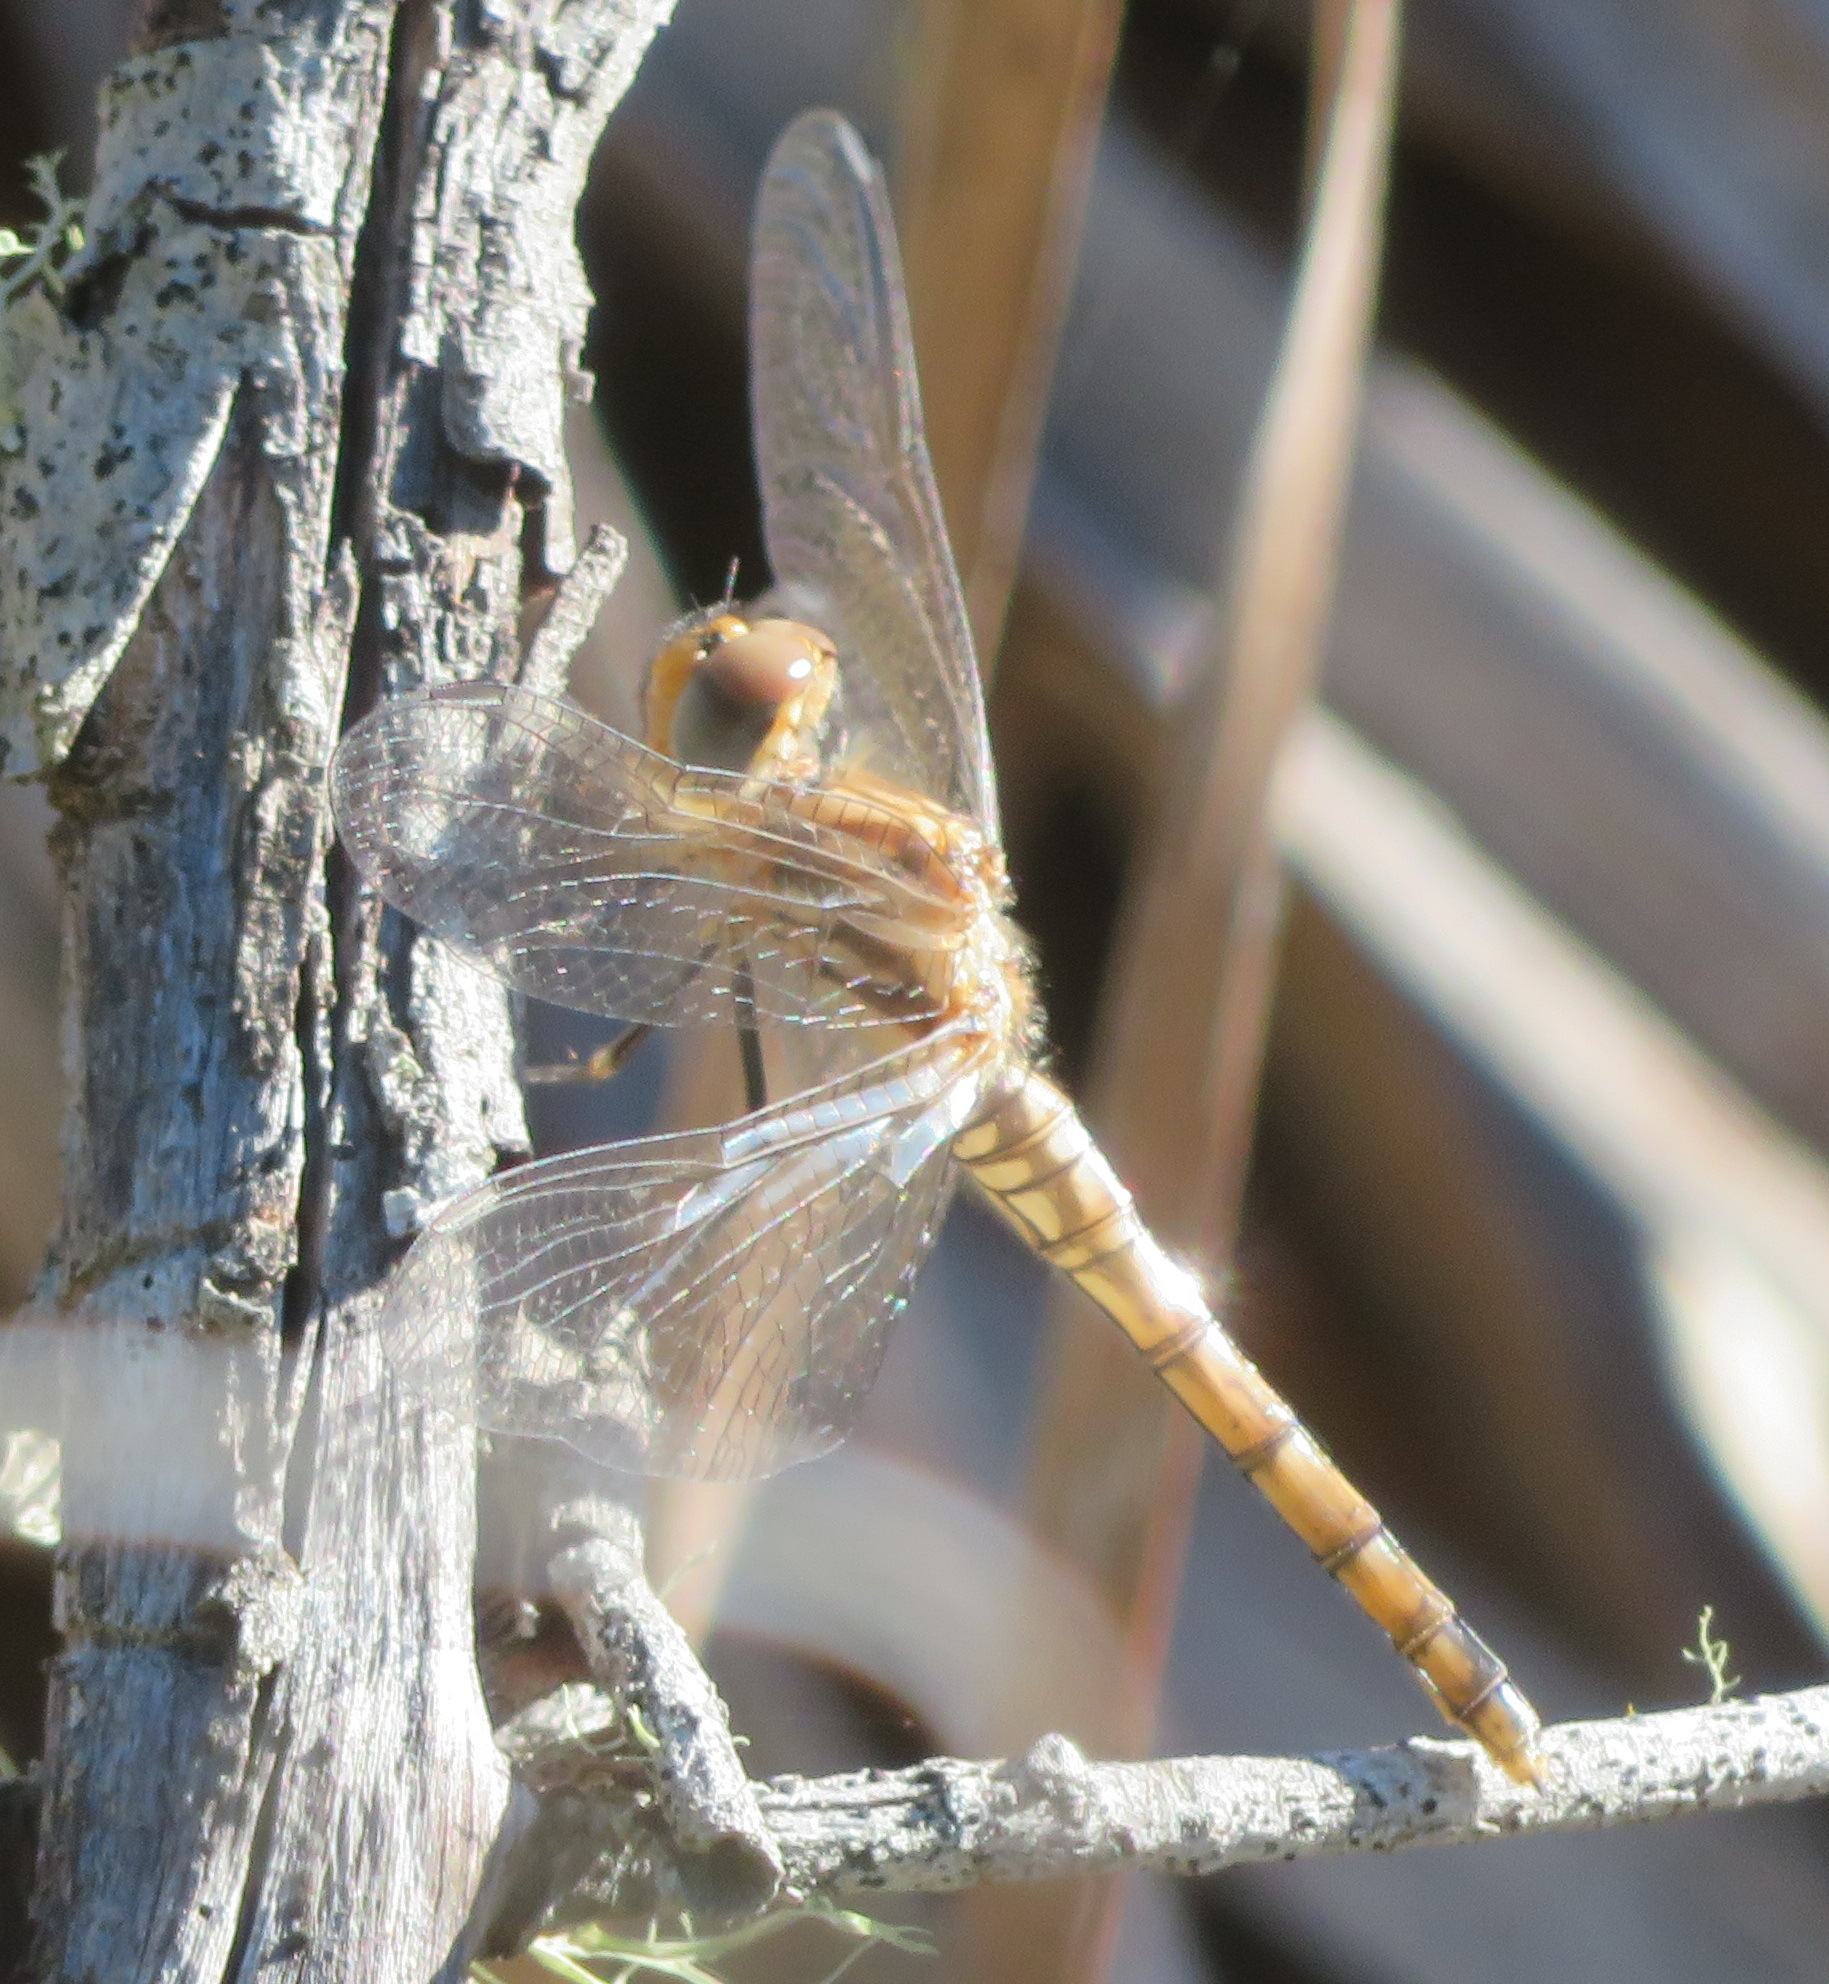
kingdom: Animalia
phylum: Arthropoda
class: Insecta
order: Odonata
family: Libellulidae
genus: Trithemis
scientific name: Trithemis arteriosa
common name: Red-veined dropwing
